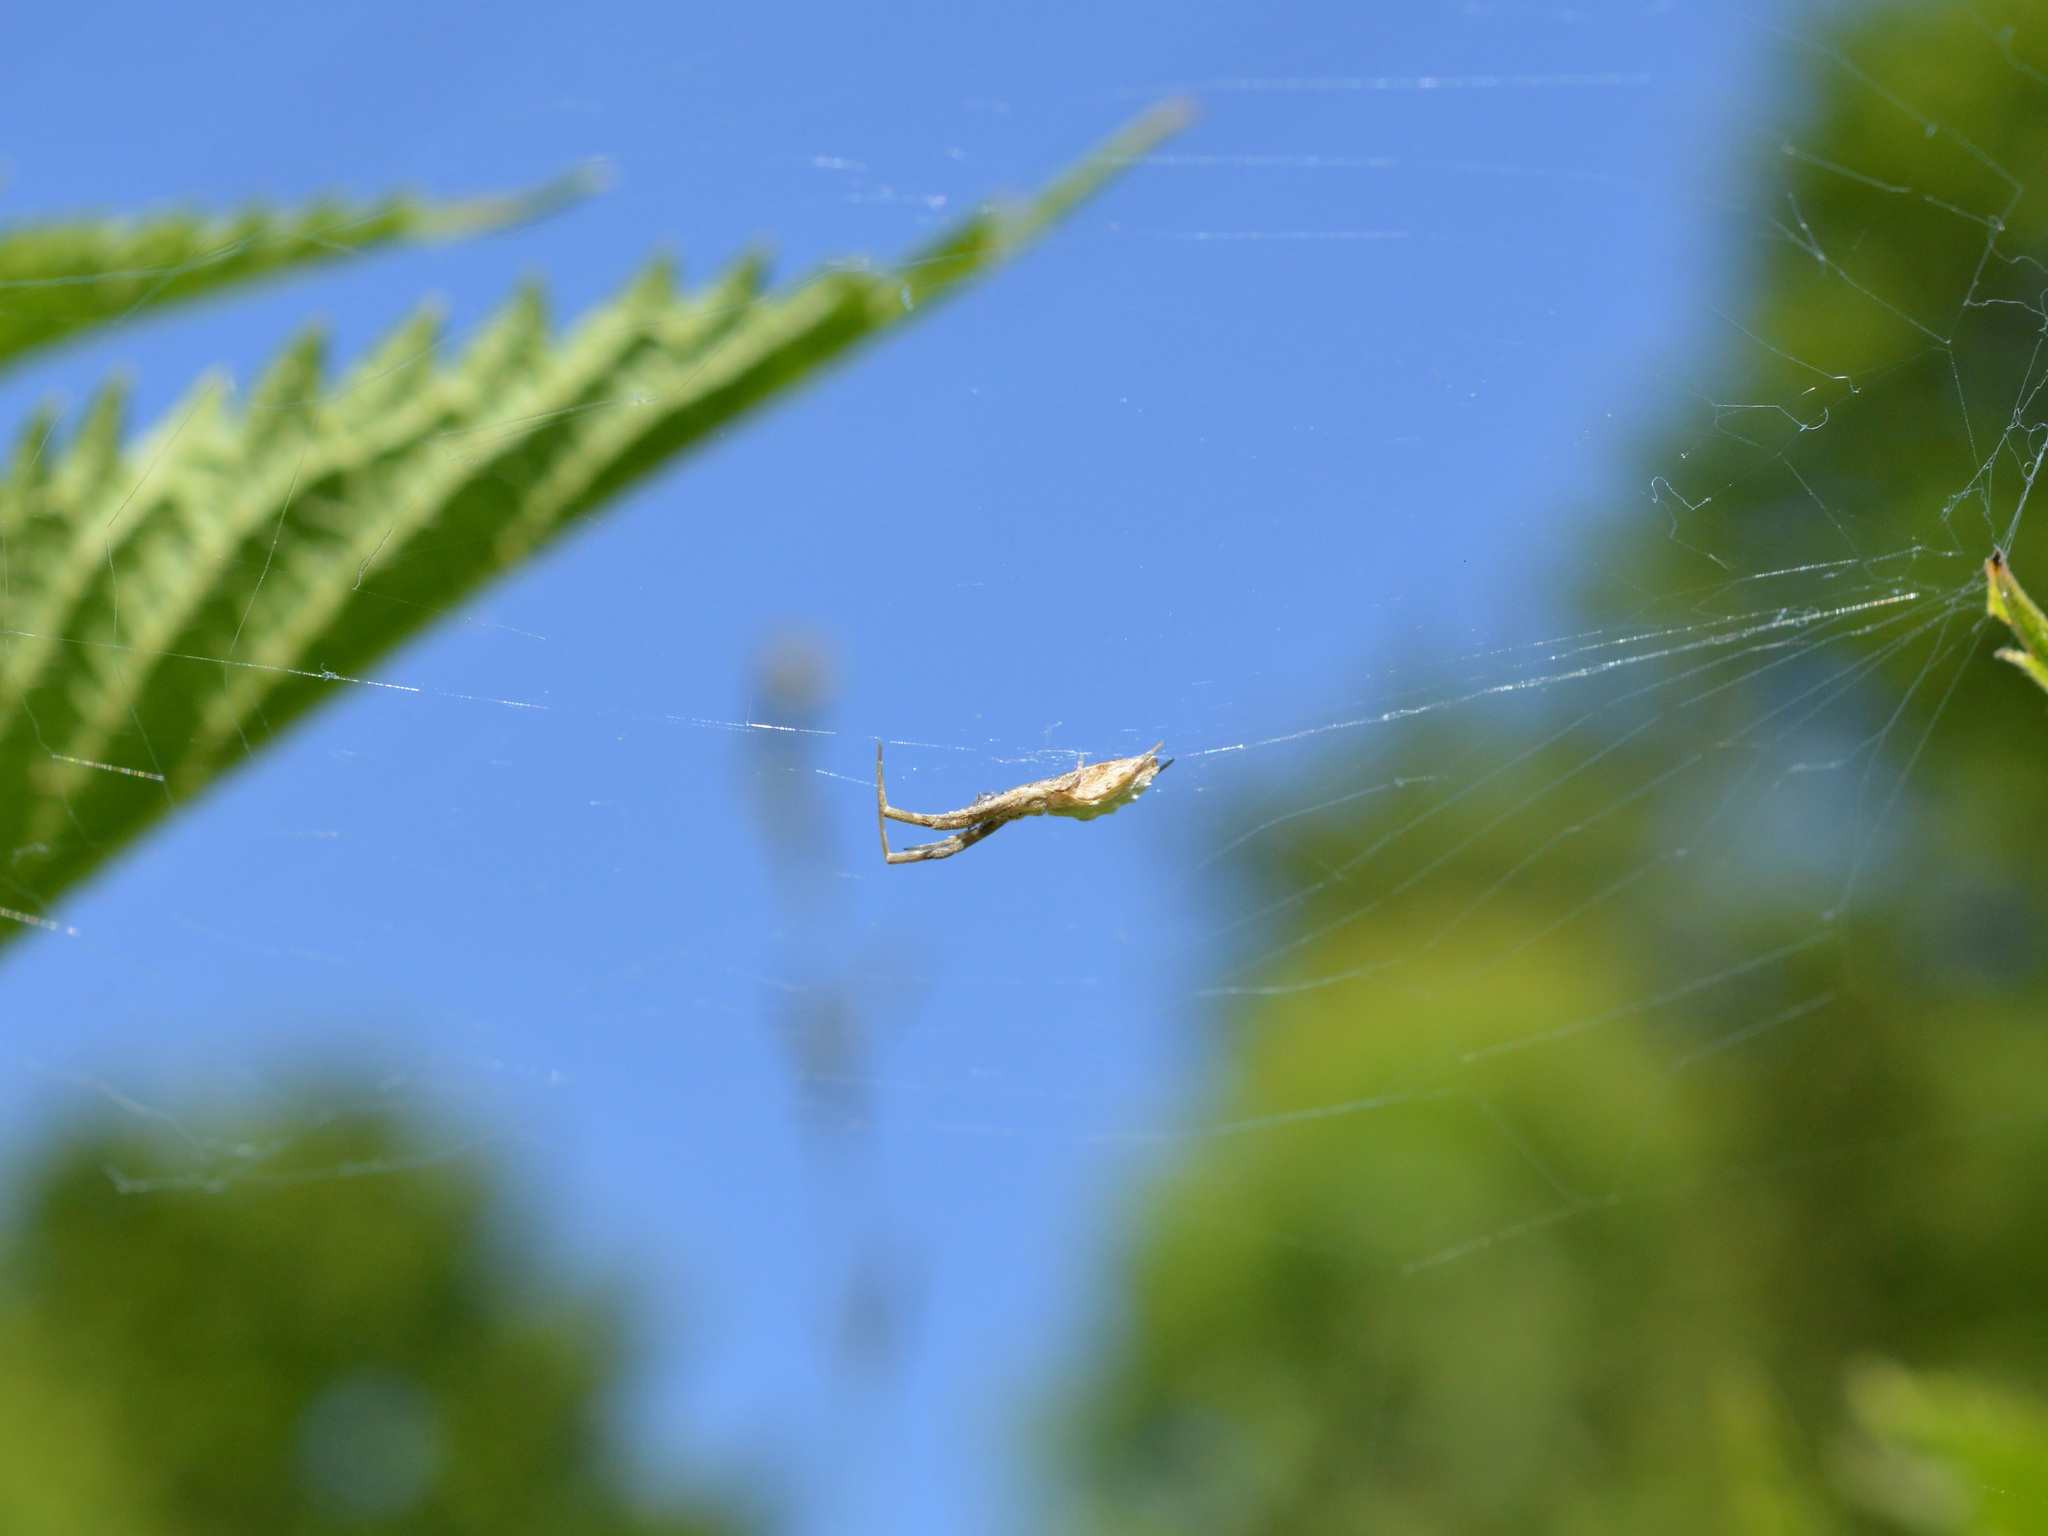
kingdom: Animalia
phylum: Arthropoda
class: Arachnida
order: Araneae
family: Uloboridae
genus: Uloborus
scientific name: Uloborus walckenaerius
